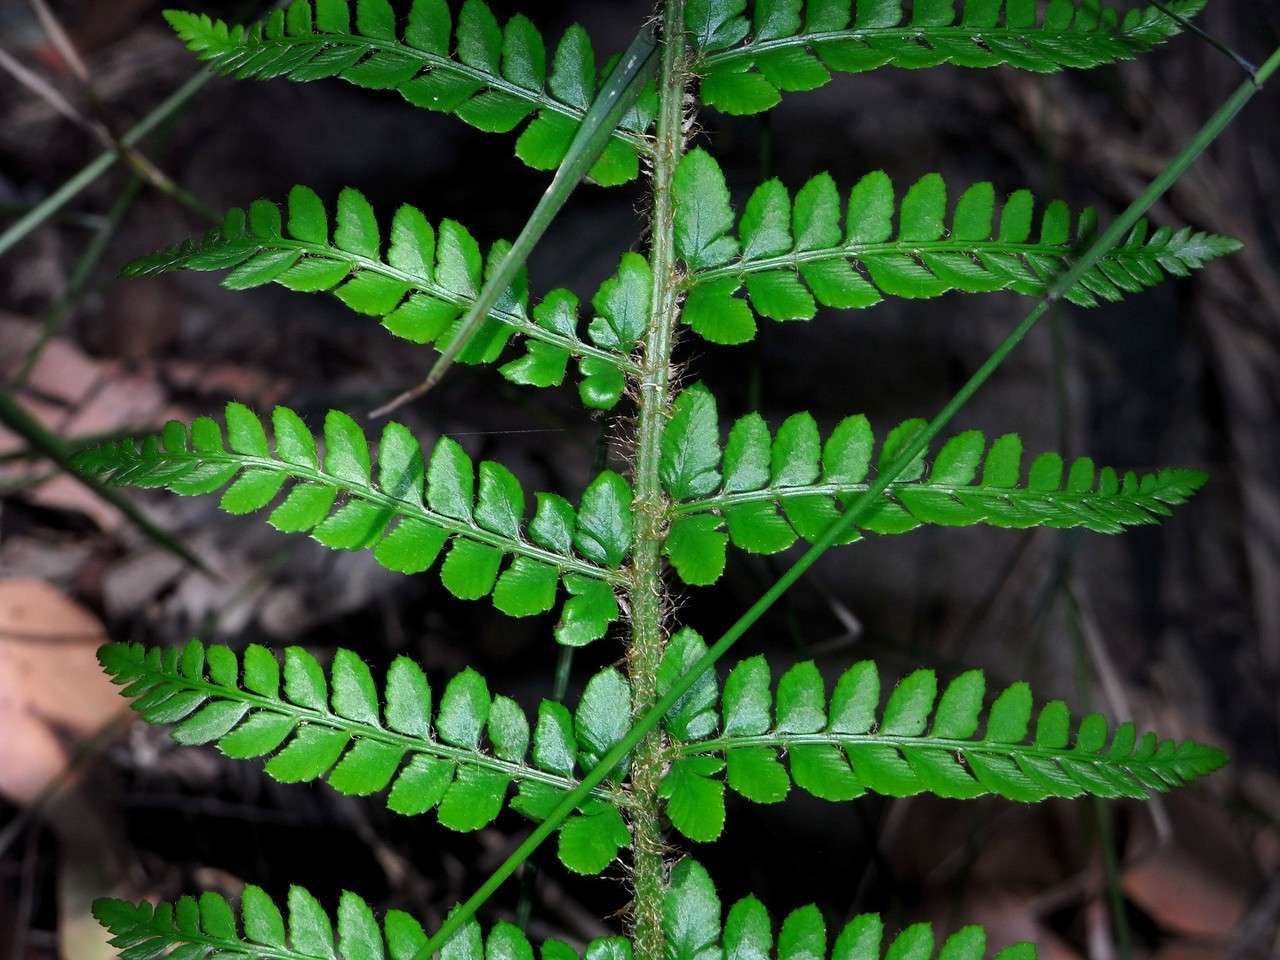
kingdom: Plantae
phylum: Tracheophyta
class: Polypodiopsida
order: Polypodiales
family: Dryopteridaceae
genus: Polystichum
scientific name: Polystichum proliferum
